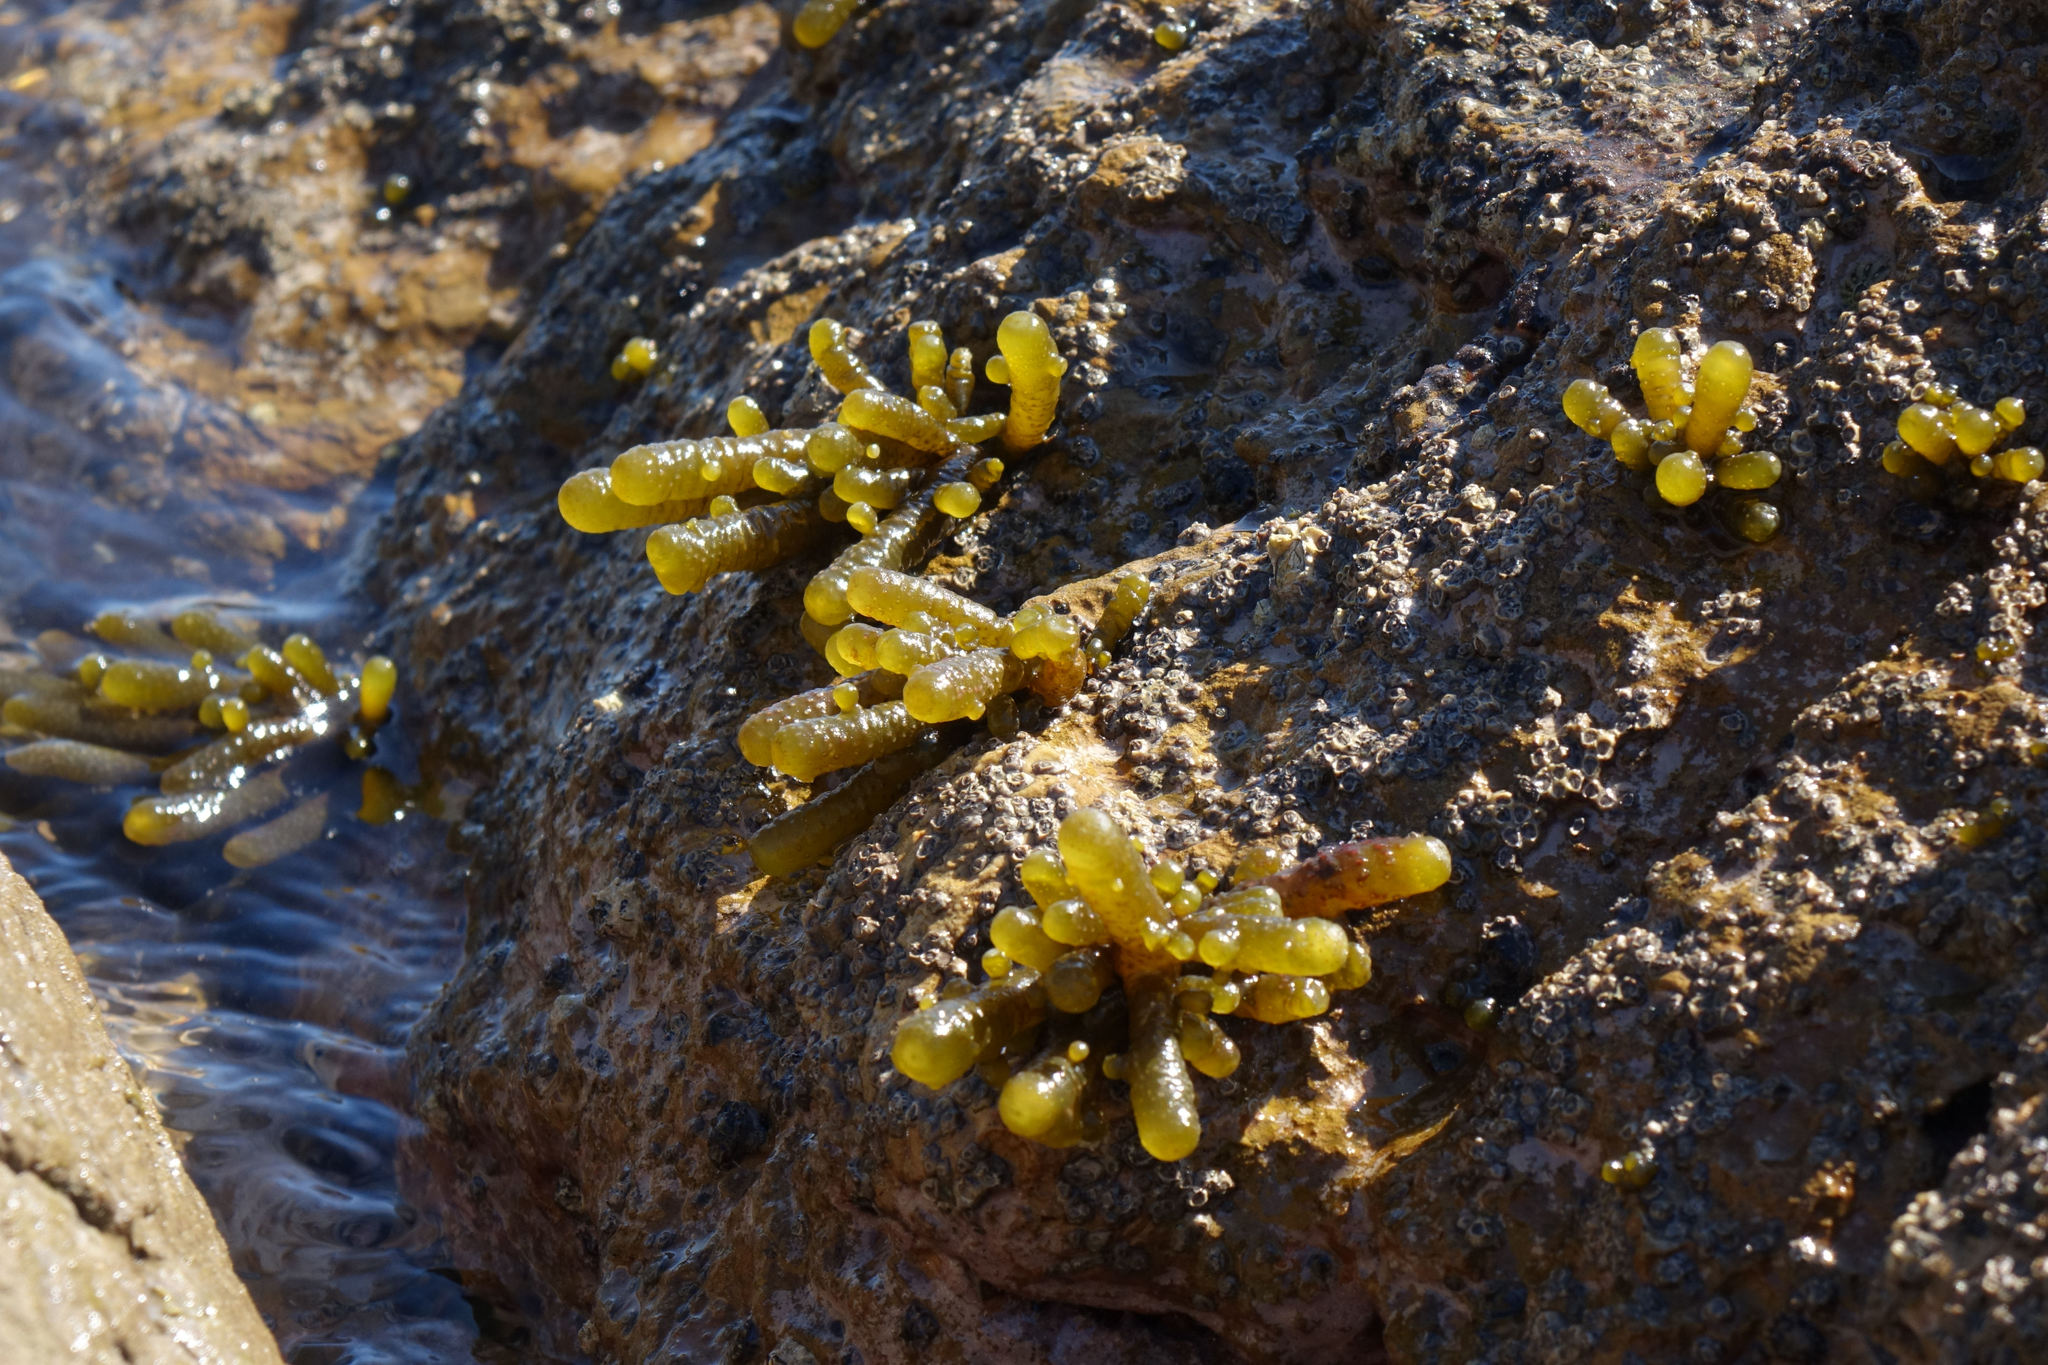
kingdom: Chromista
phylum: Ochrophyta
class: Phaeophyceae
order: Scytothamnales
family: Splachnidiaceae
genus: Splachnidium
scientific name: Splachnidium rugosum
